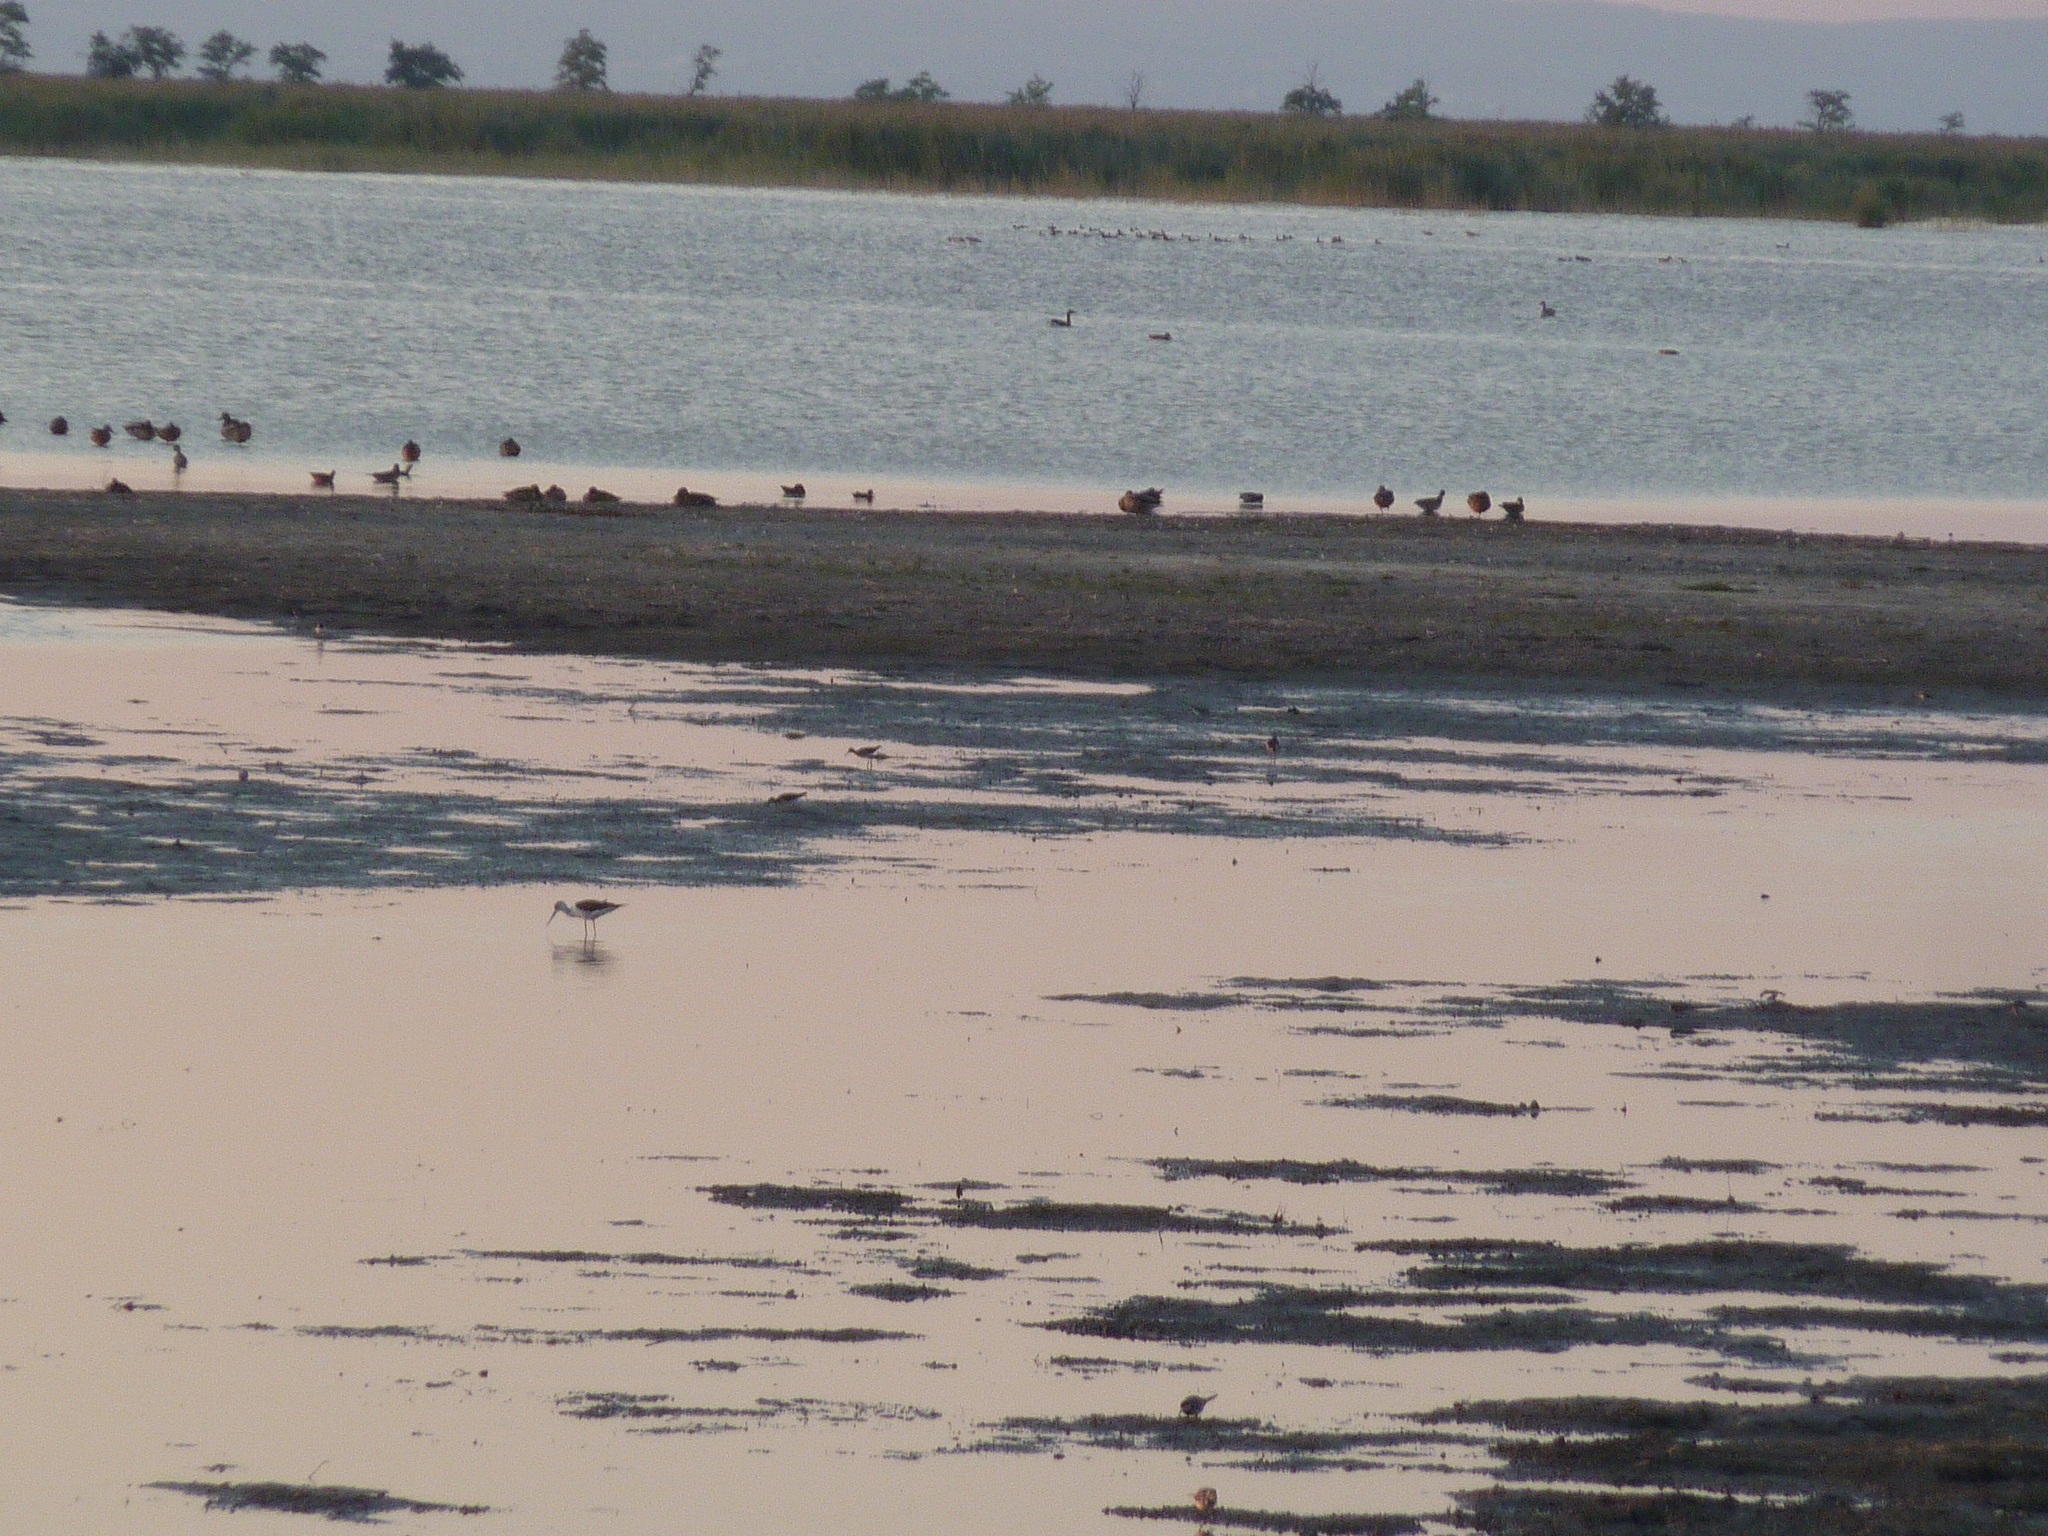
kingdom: Animalia
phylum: Chordata
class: Aves
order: Charadriiformes
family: Recurvirostridae
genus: Himantopus
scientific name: Himantopus himantopus
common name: Black-winged stilt
